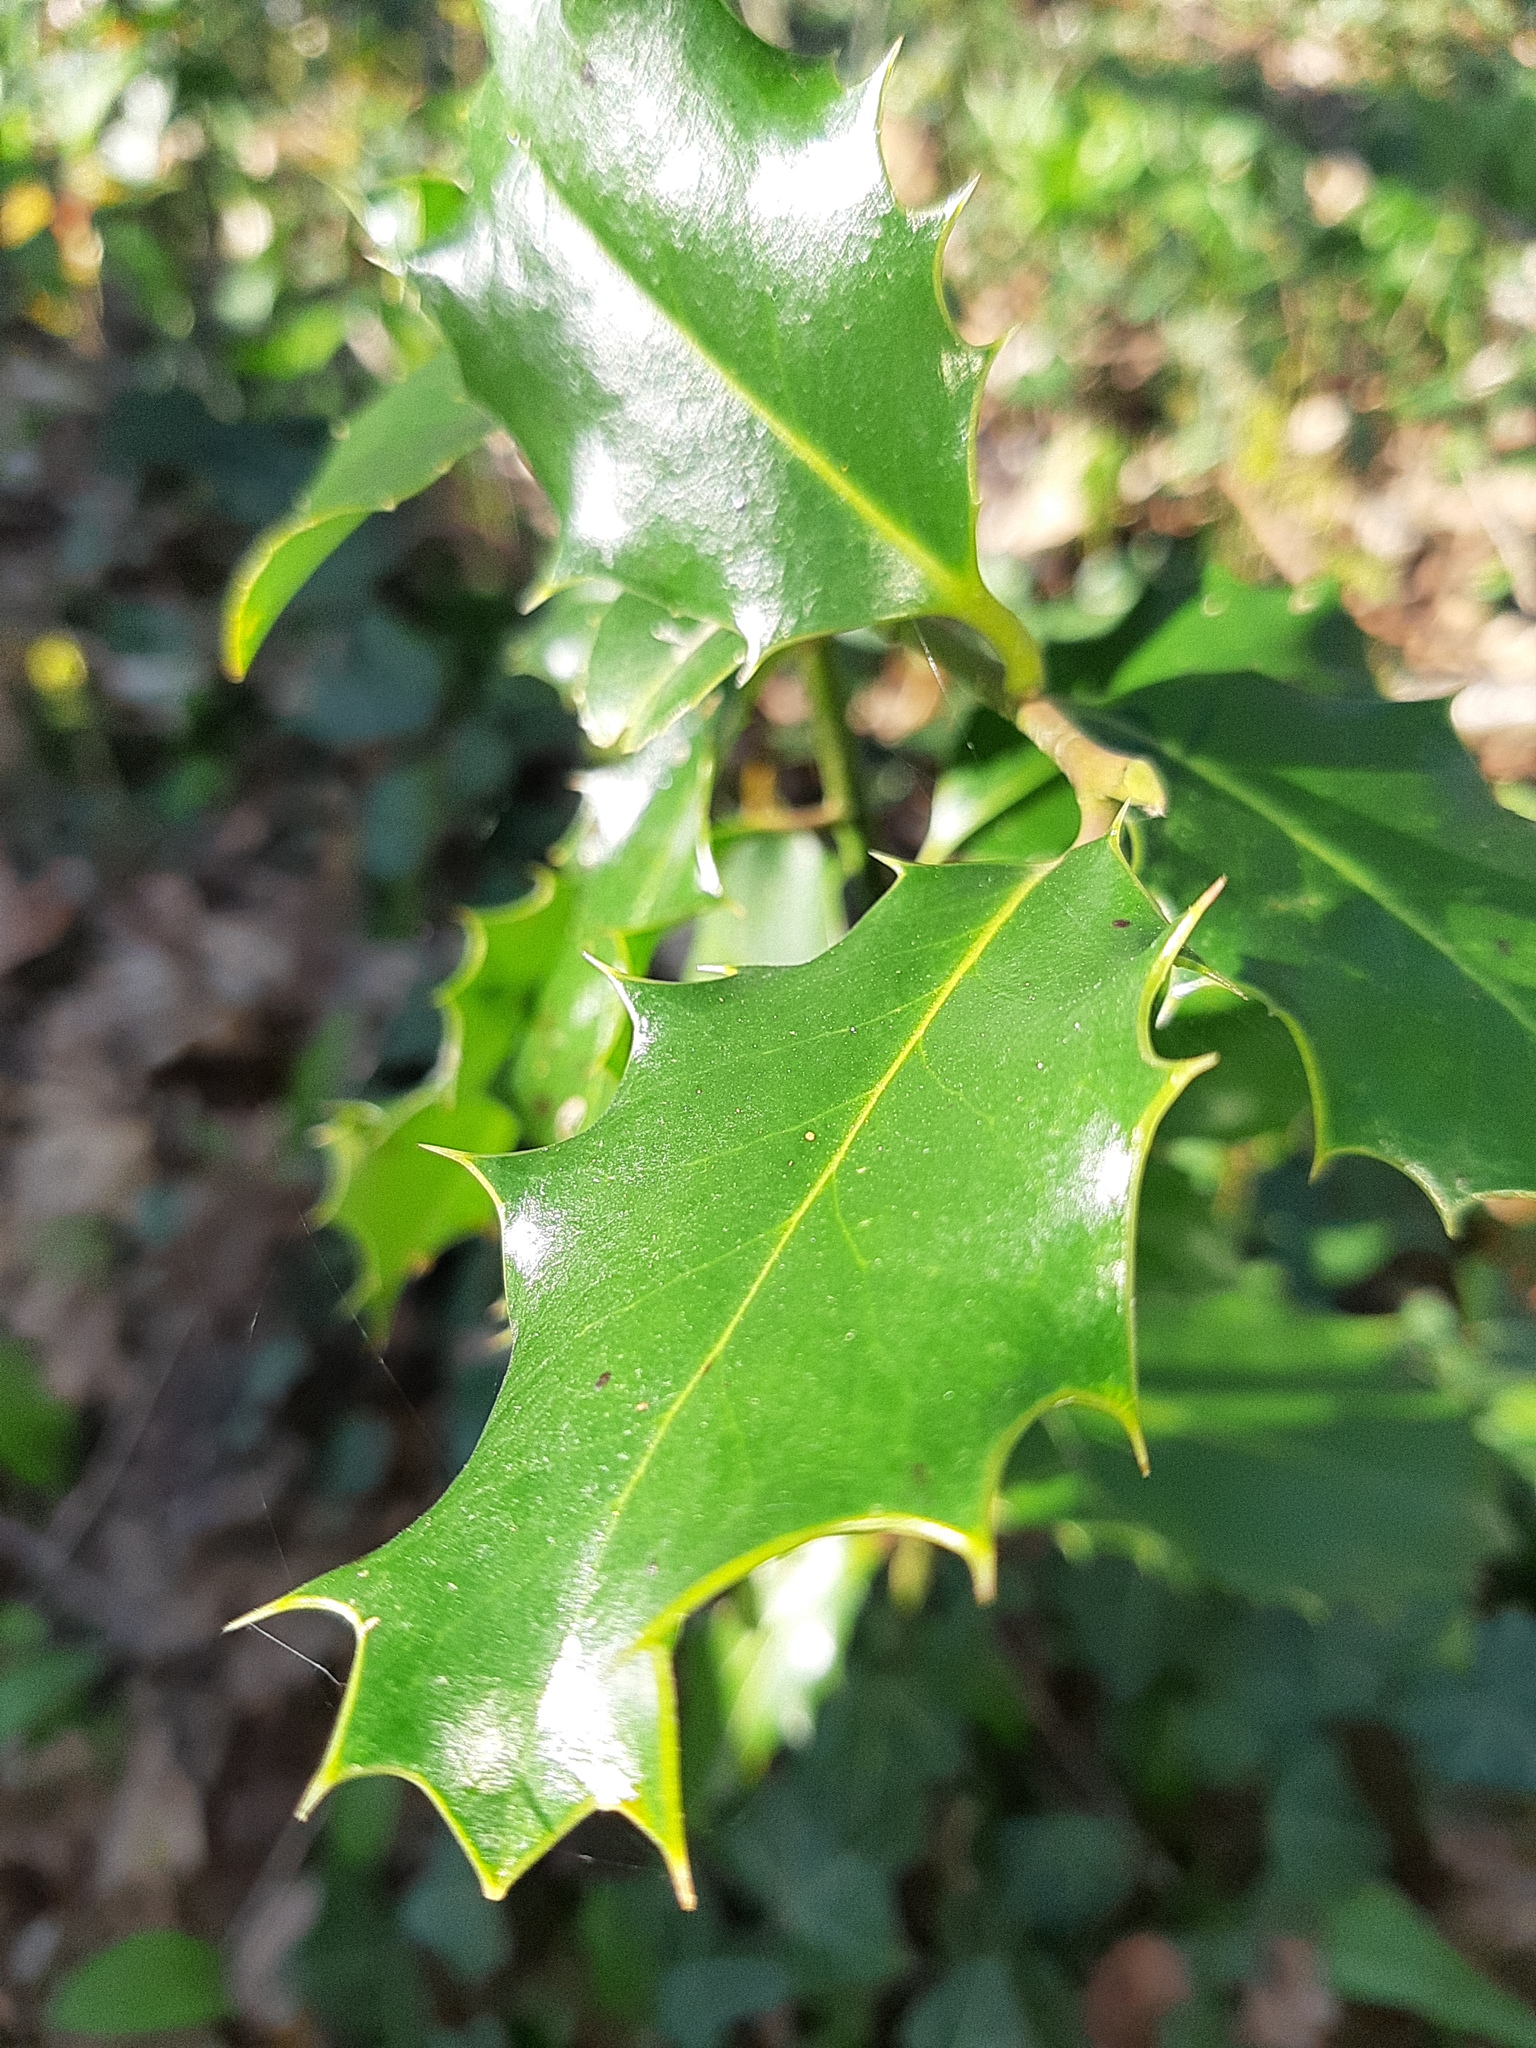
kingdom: Plantae
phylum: Tracheophyta
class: Magnoliopsida
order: Aquifoliales
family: Aquifoliaceae
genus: Ilex
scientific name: Ilex aquifolium
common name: English holly
